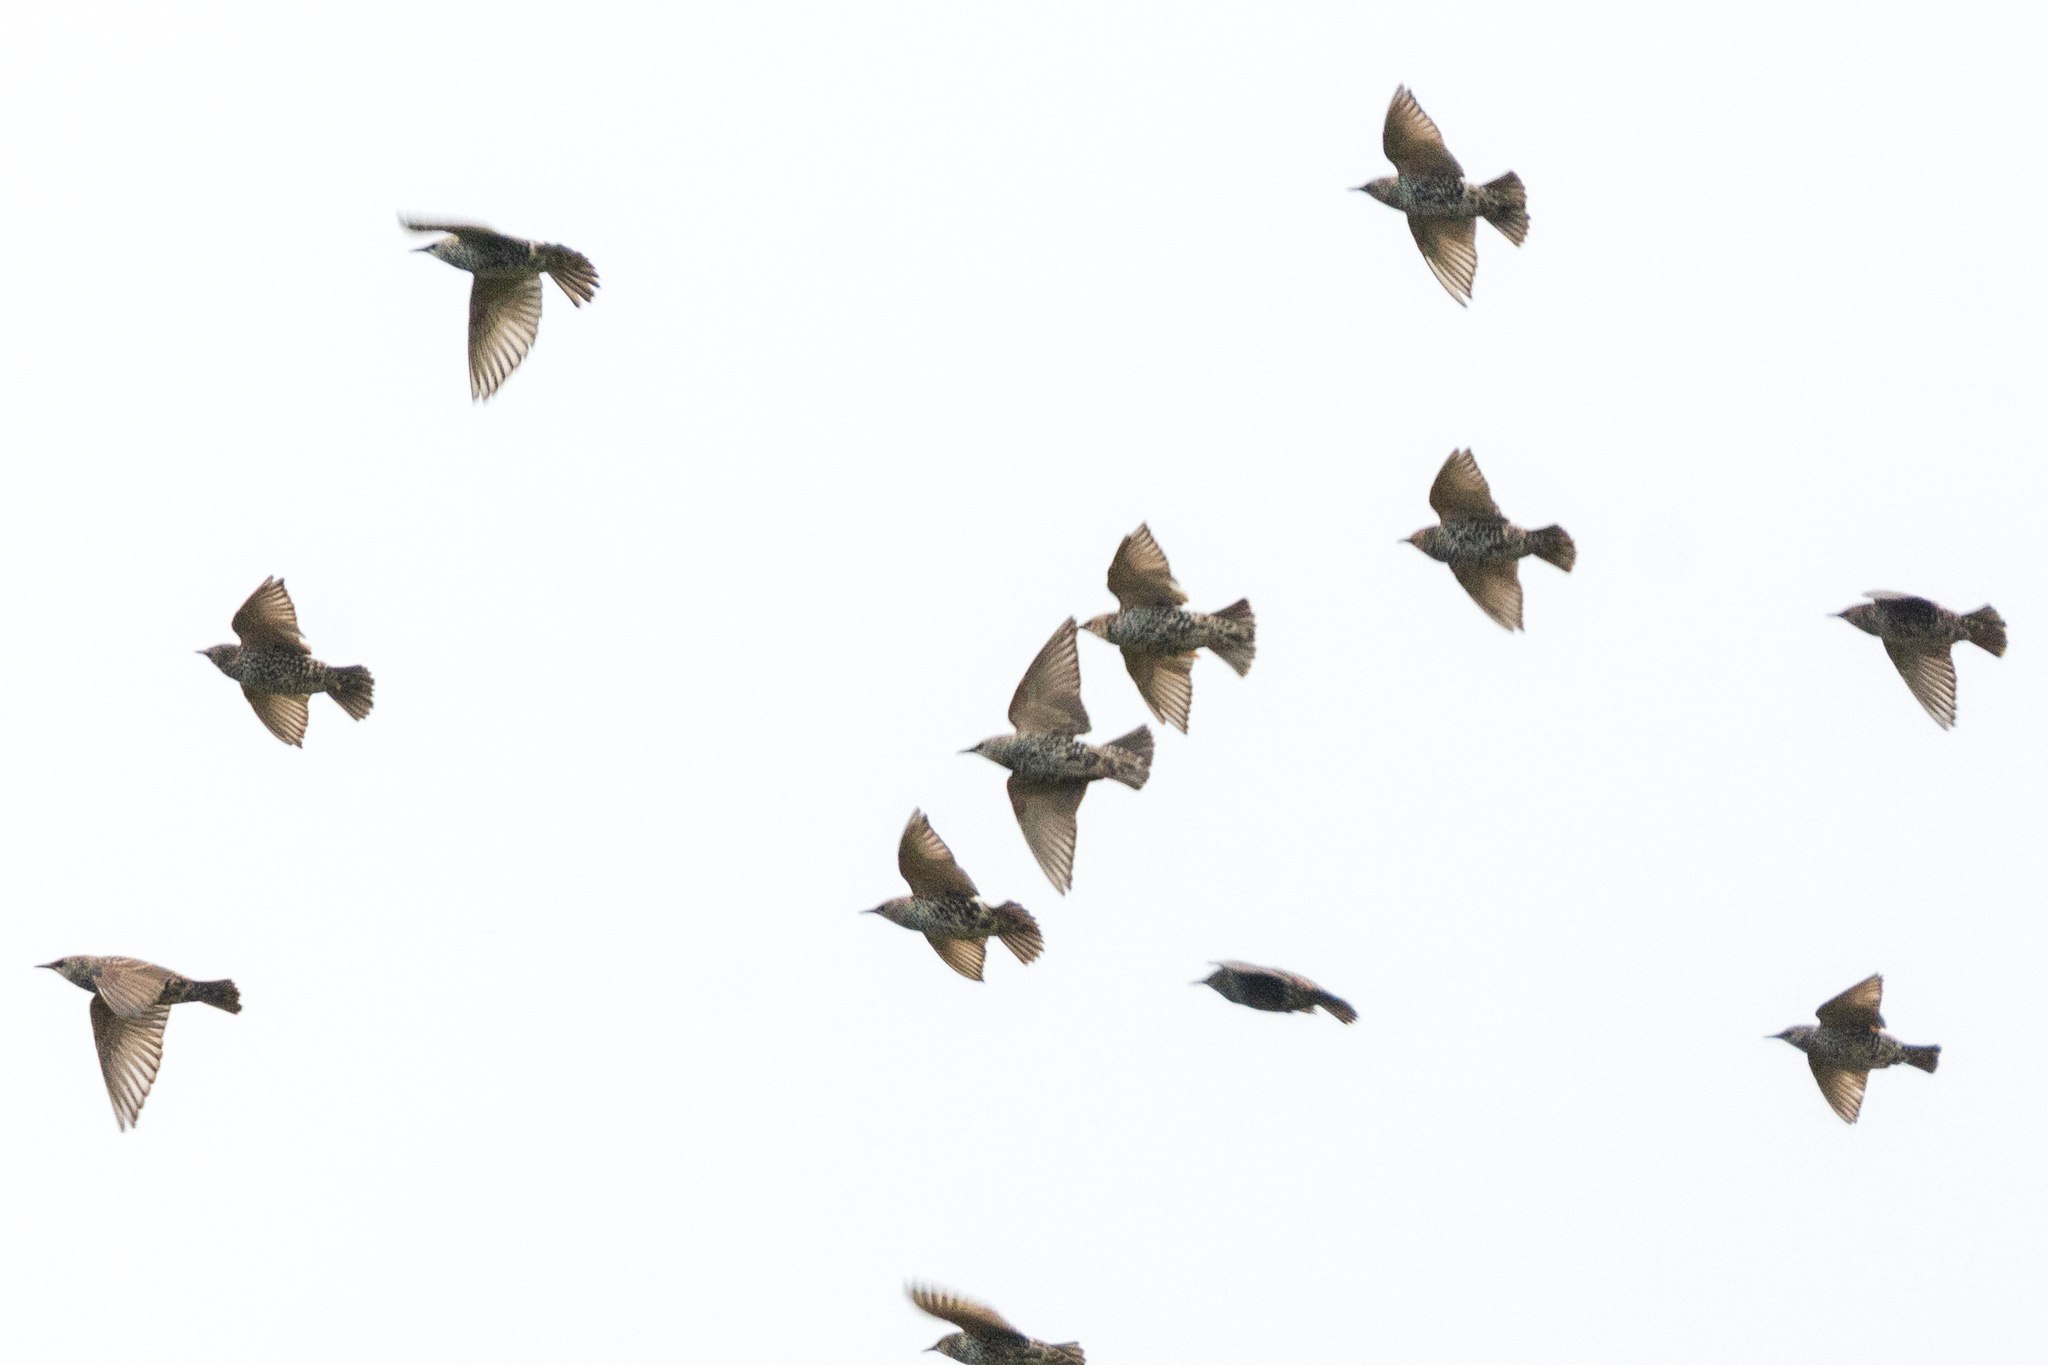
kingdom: Animalia
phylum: Chordata
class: Aves
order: Passeriformes
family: Sturnidae
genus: Sturnus
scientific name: Sturnus vulgaris
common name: Common starling
